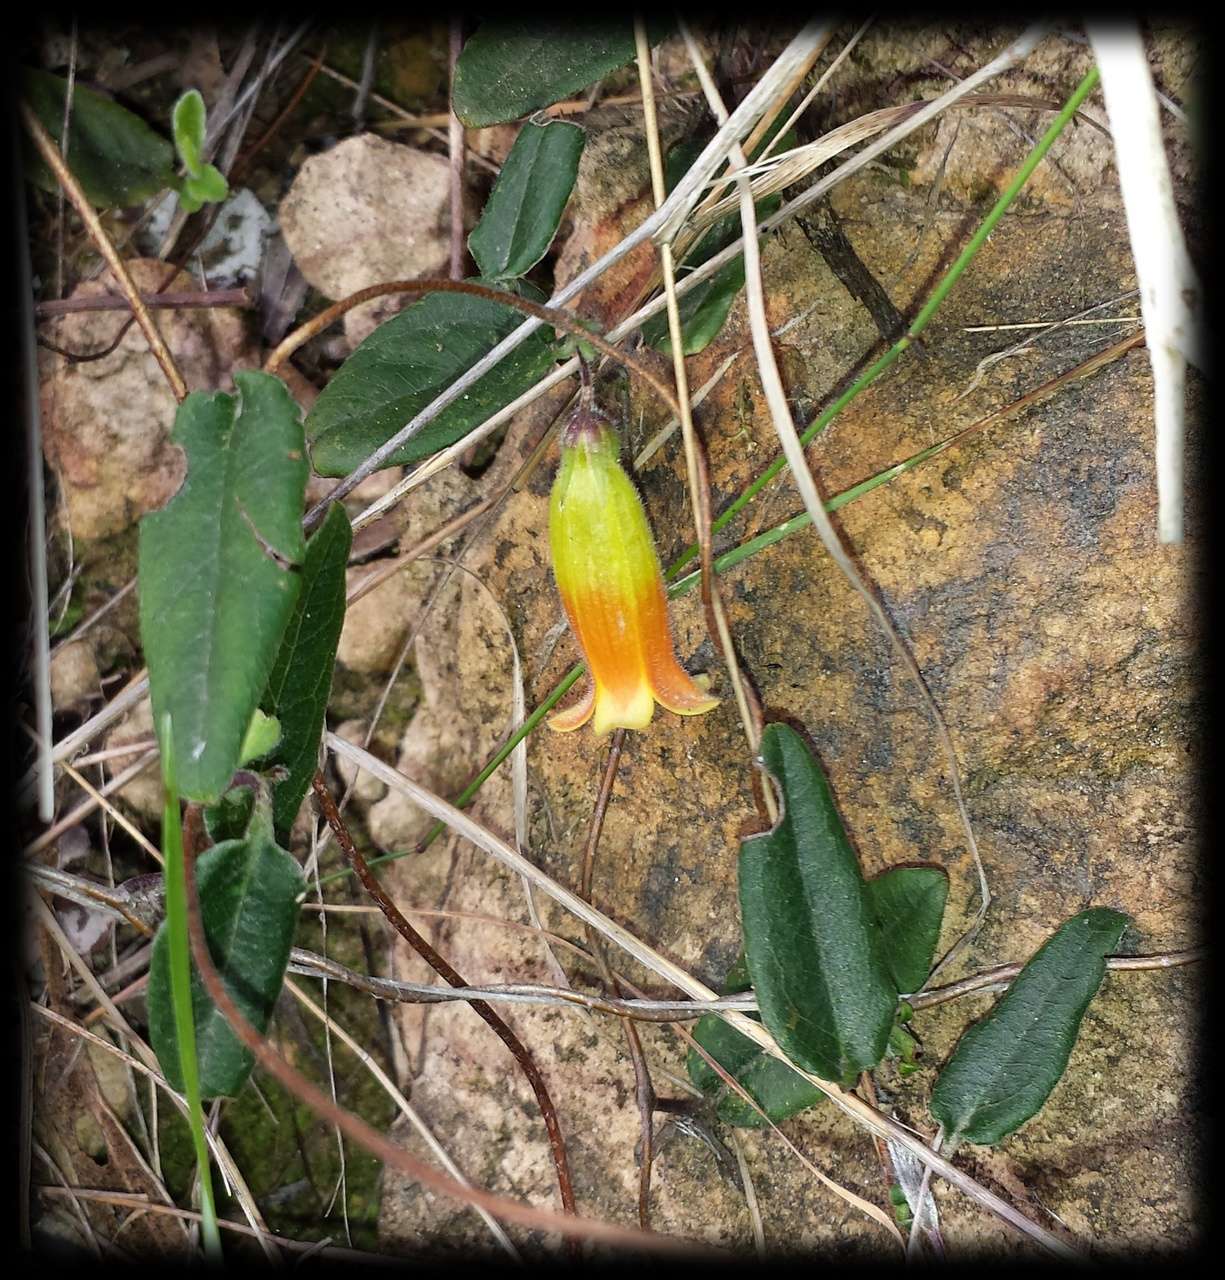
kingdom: Plantae
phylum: Tracheophyta
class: Magnoliopsida
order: Apiales
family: Pittosporaceae
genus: Marianthus
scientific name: Marianthus bignoniaceus
